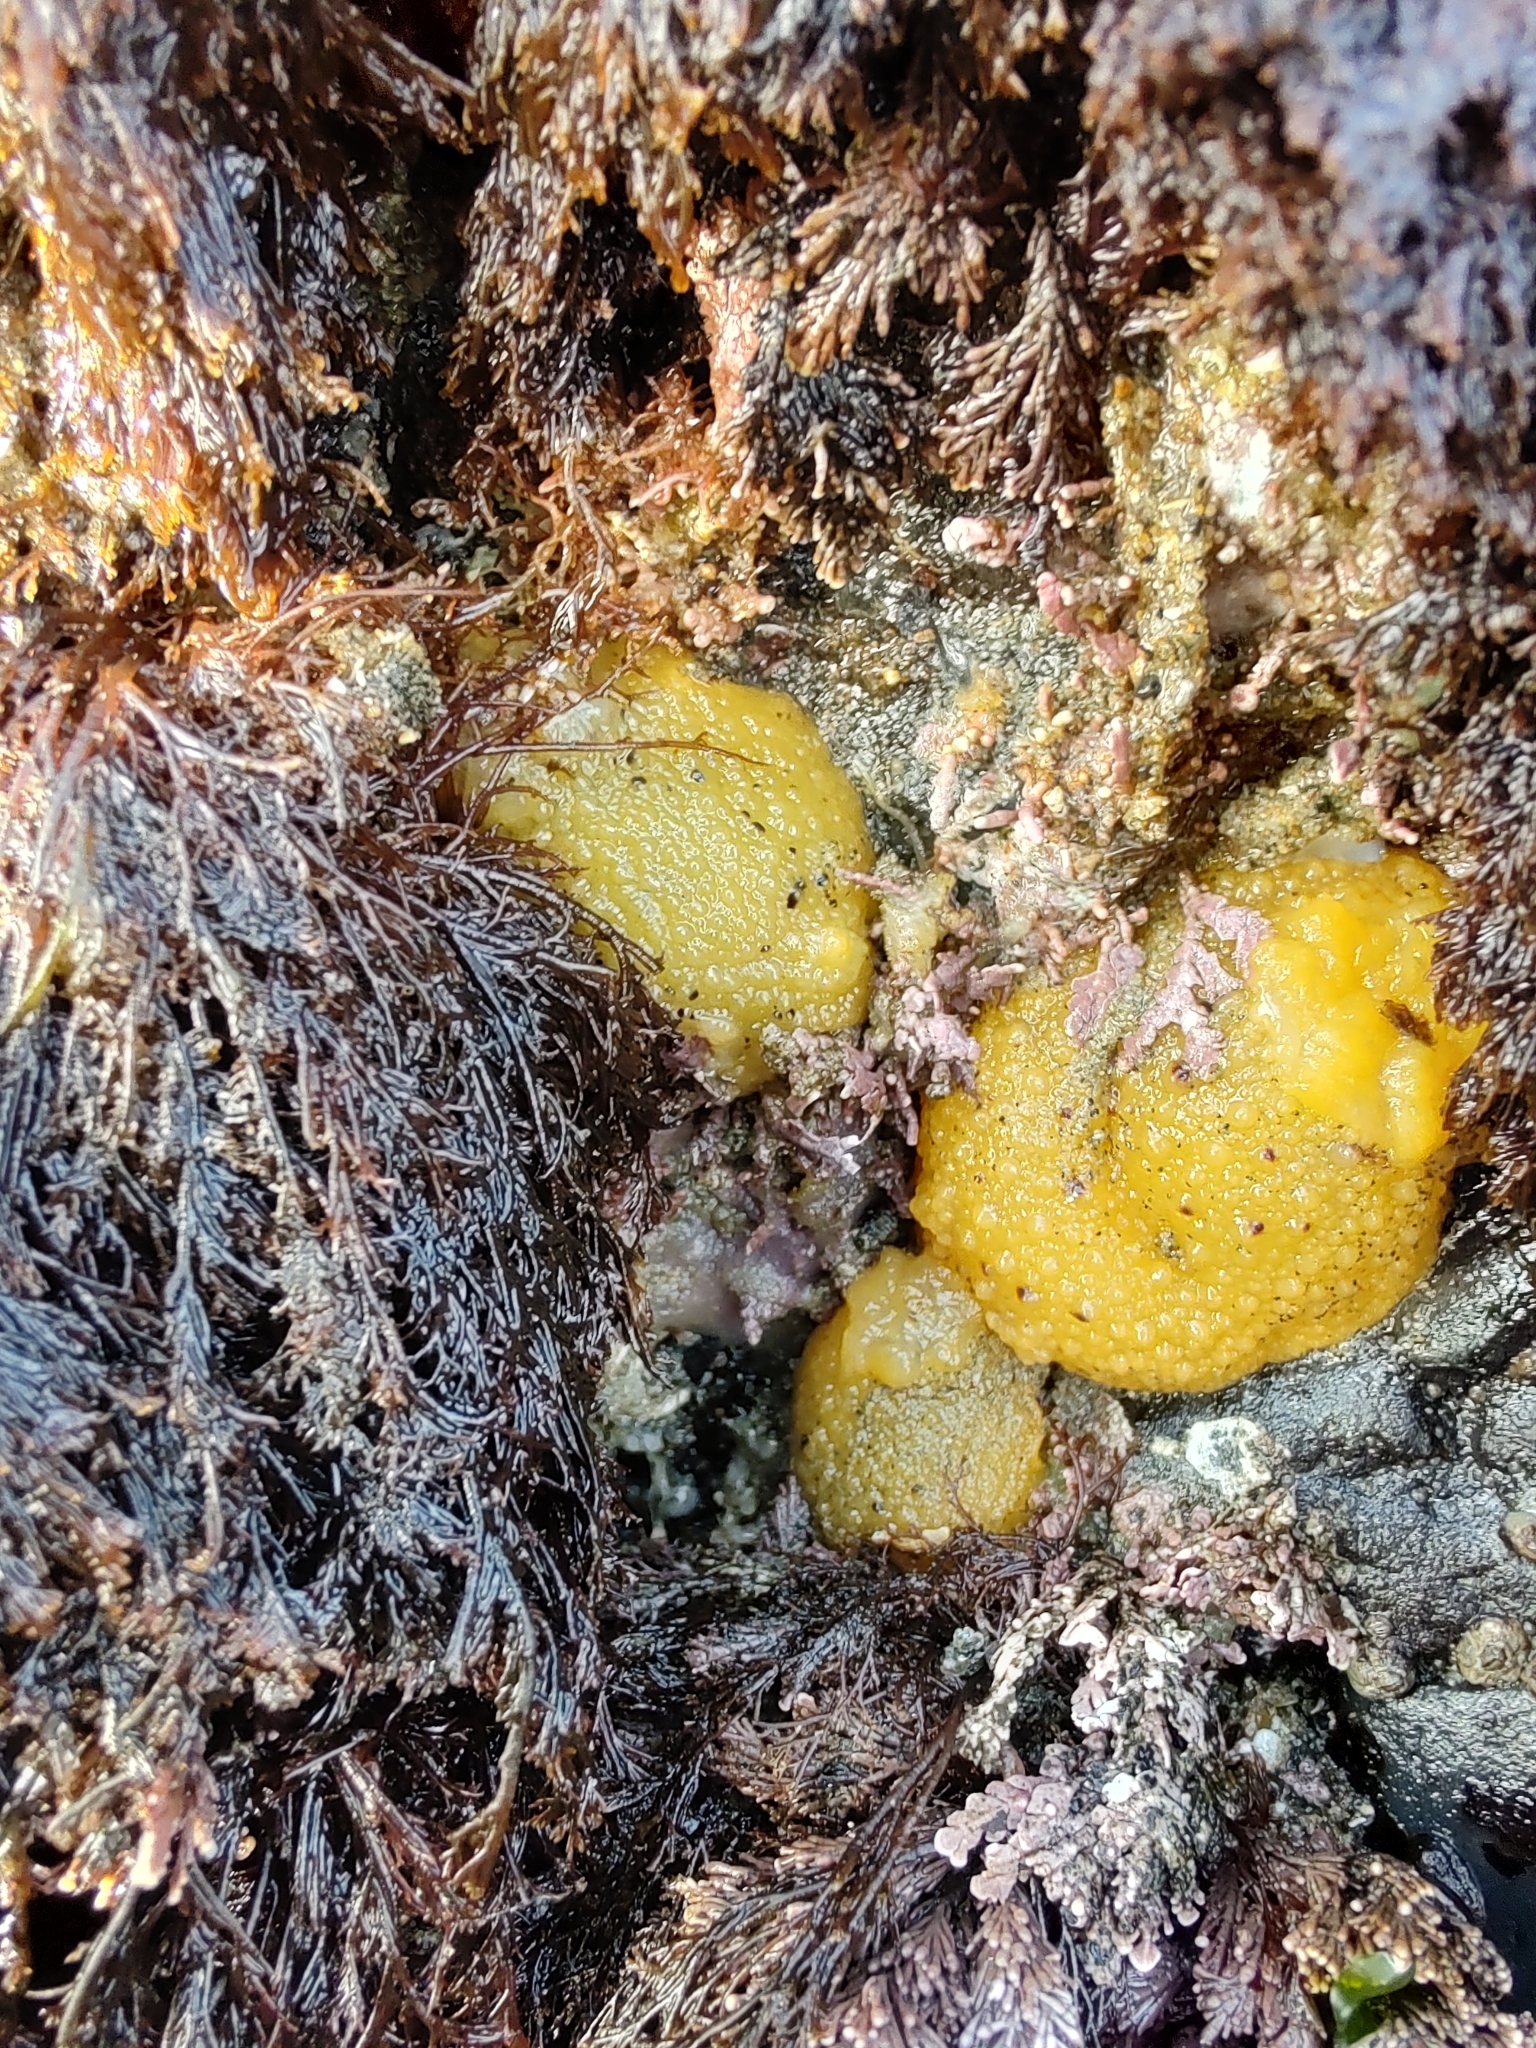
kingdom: Animalia
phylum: Mollusca
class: Gastropoda
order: Nudibranchia
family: Dorididae
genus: Doris
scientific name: Doris montereyensis
